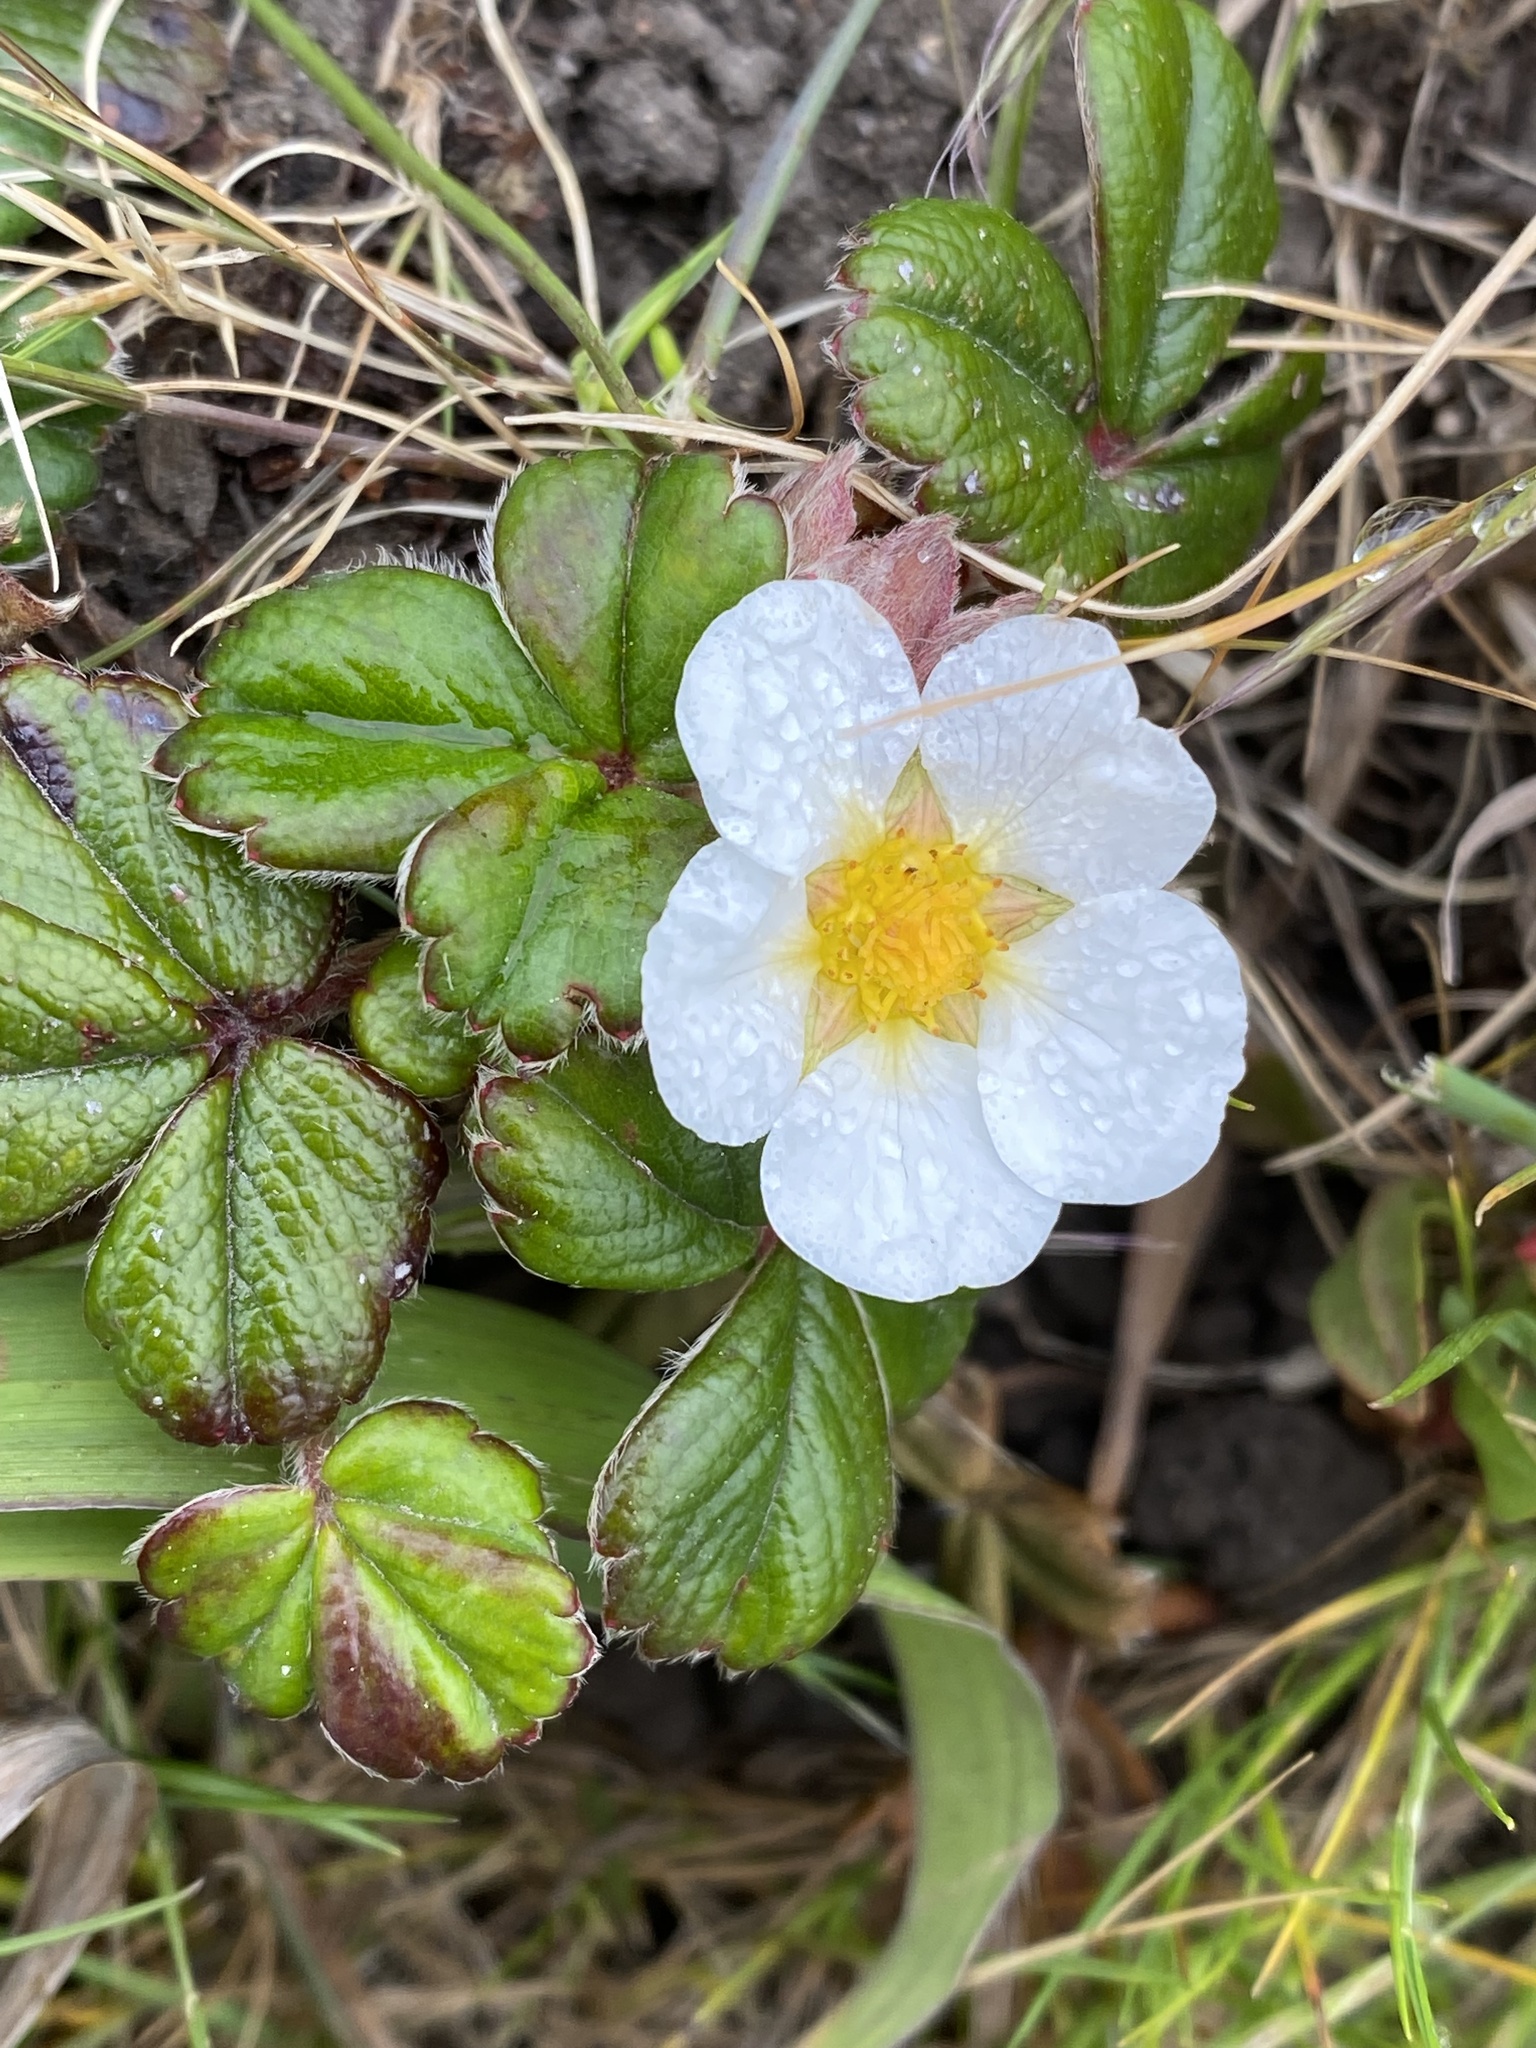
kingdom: Plantae
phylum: Tracheophyta
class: Magnoliopsida
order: Rosales
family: Rosaceae
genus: Fragaria
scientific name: Fragaria chiloensis
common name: Beach strawberry
